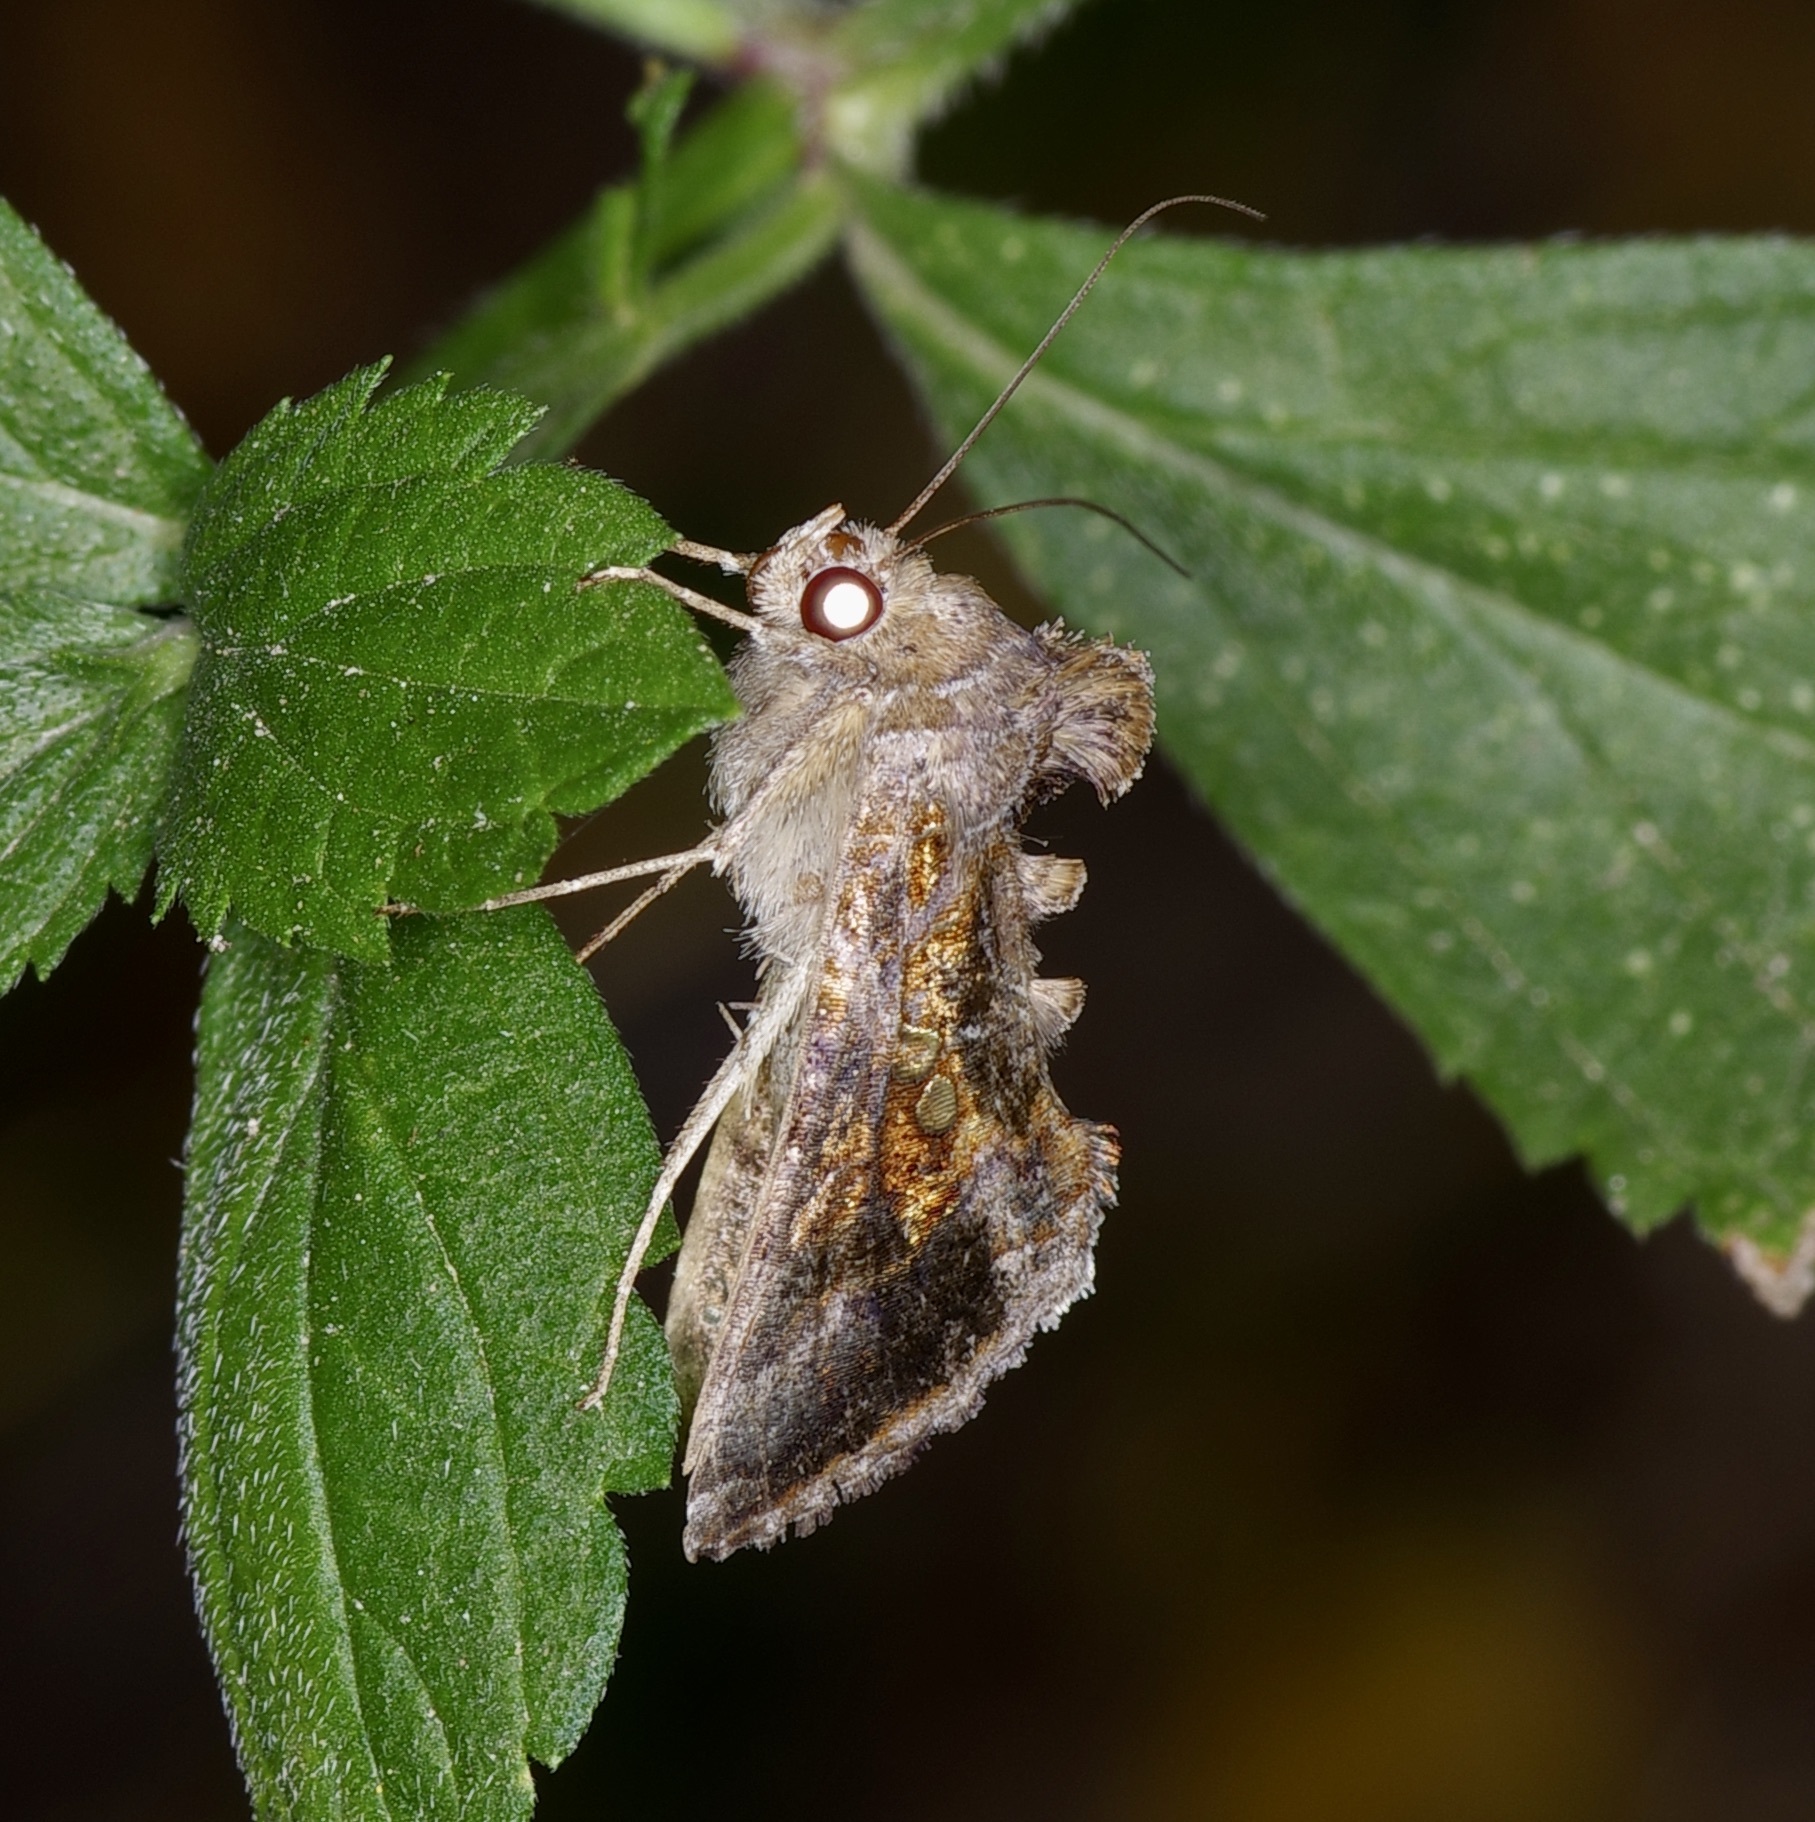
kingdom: Animalia
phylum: Arthropoda
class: Insecta
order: Lepidoptera
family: Noctuidae
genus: Chrysodeixis
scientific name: Chrysodeixis includens
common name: Cutworm moth
